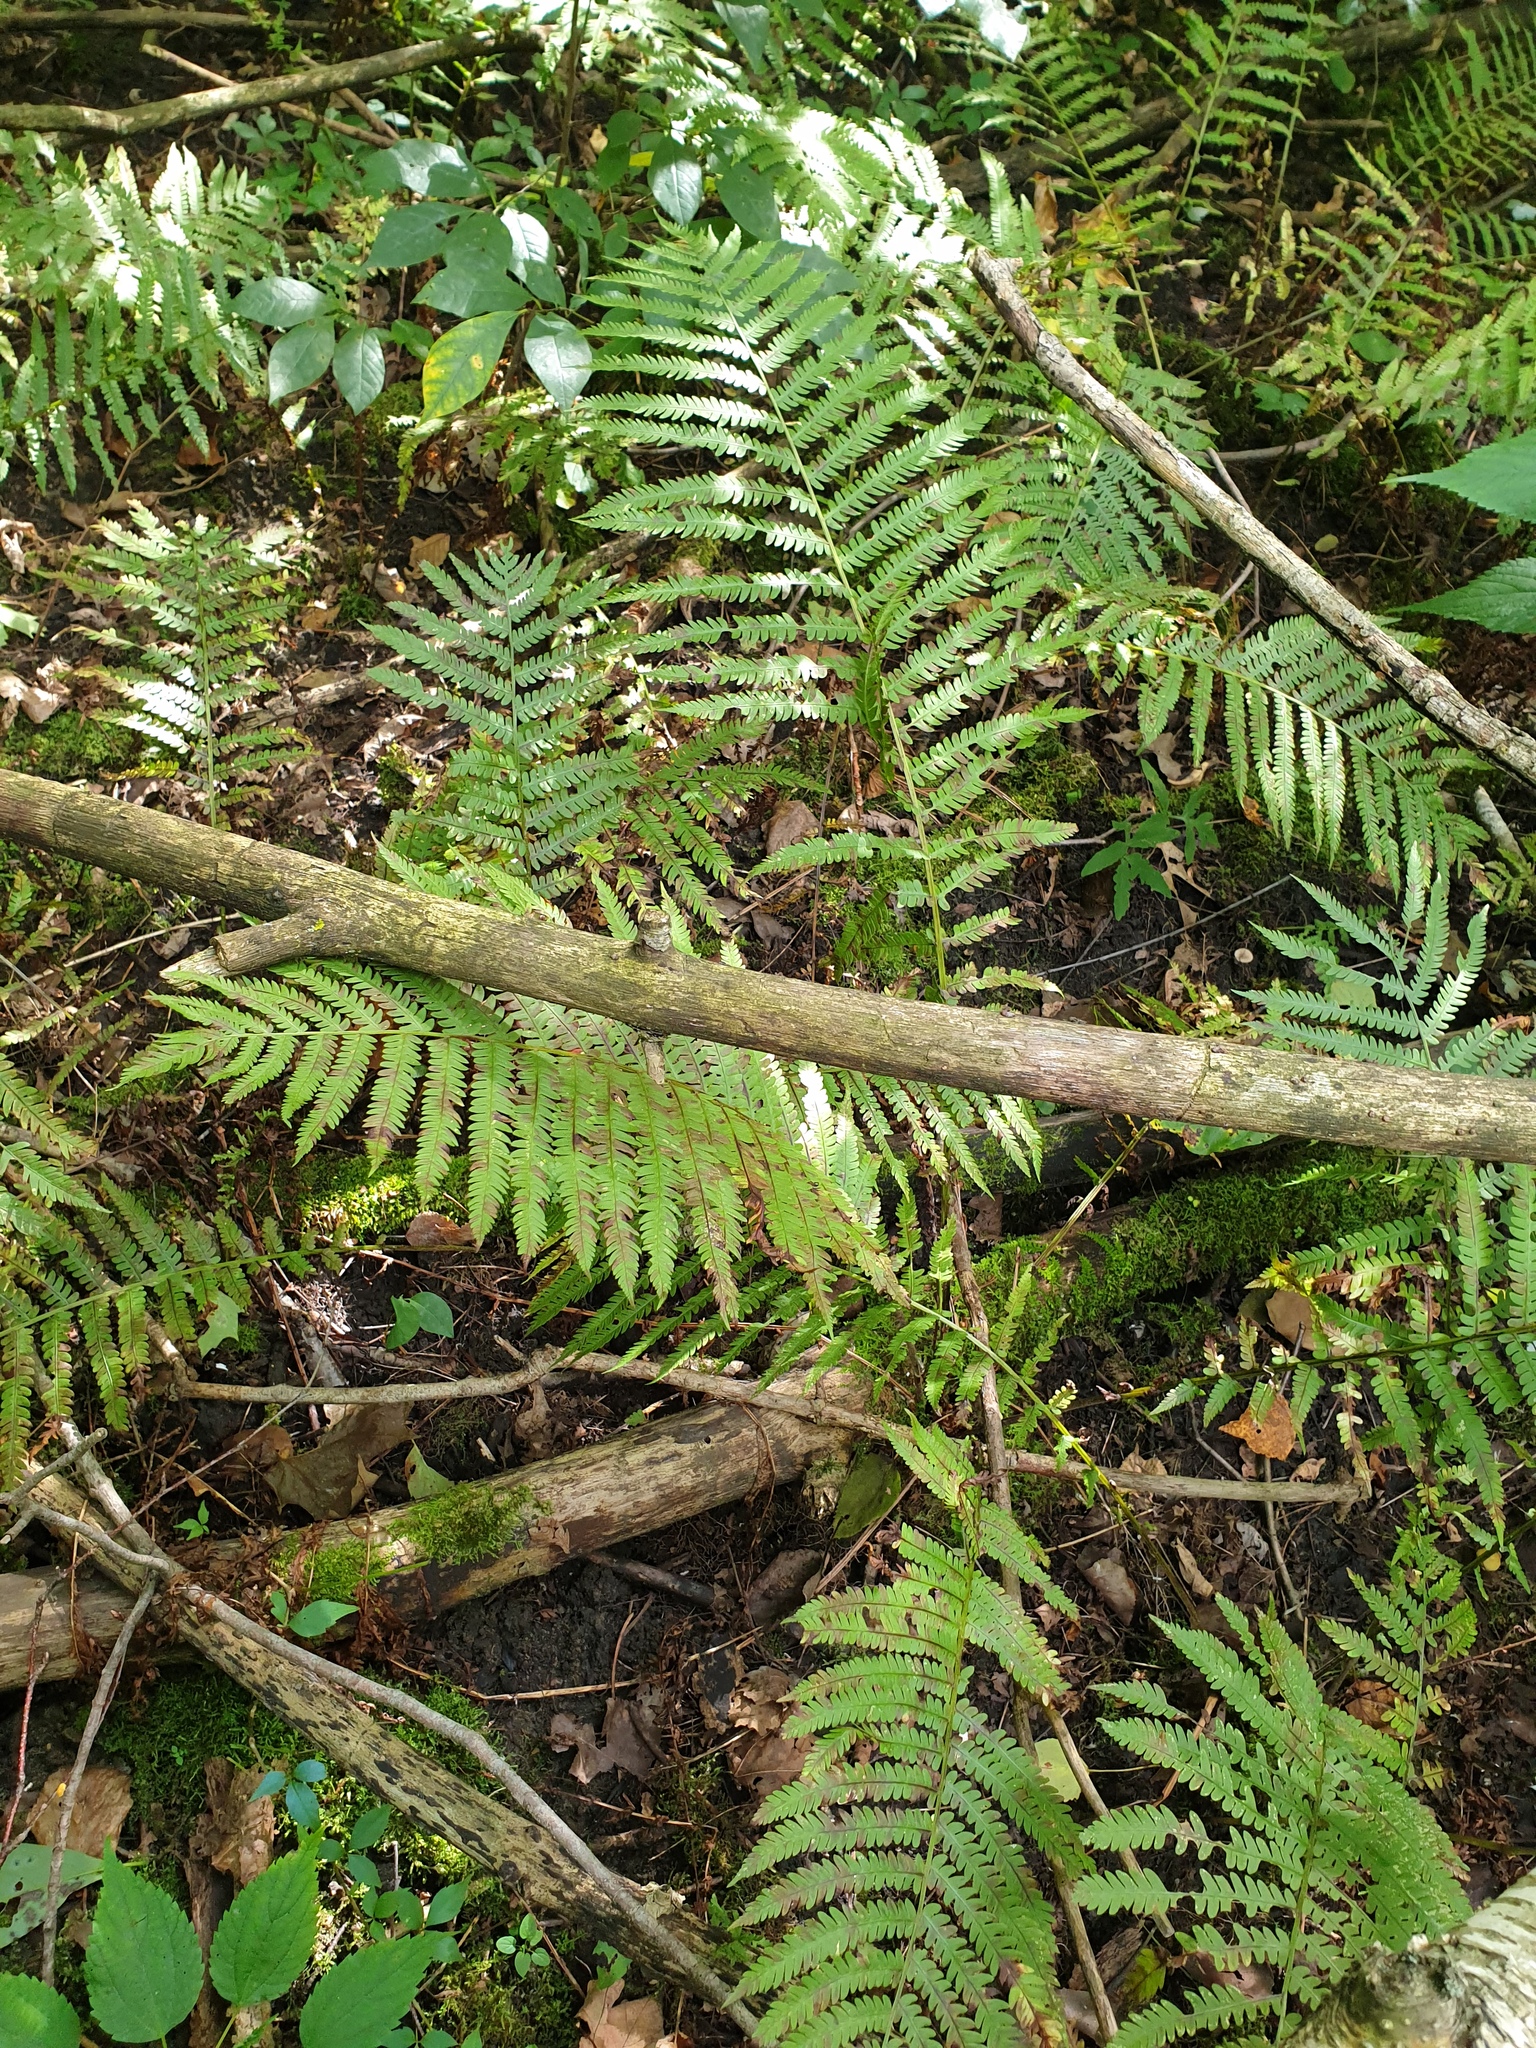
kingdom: Plantae
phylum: Tracheophyta
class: Polypodiopsida
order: Polypodiales
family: Onocleaceae
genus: Matteuccia
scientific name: Matteuccia struthiopteris
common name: Ostrich fern
